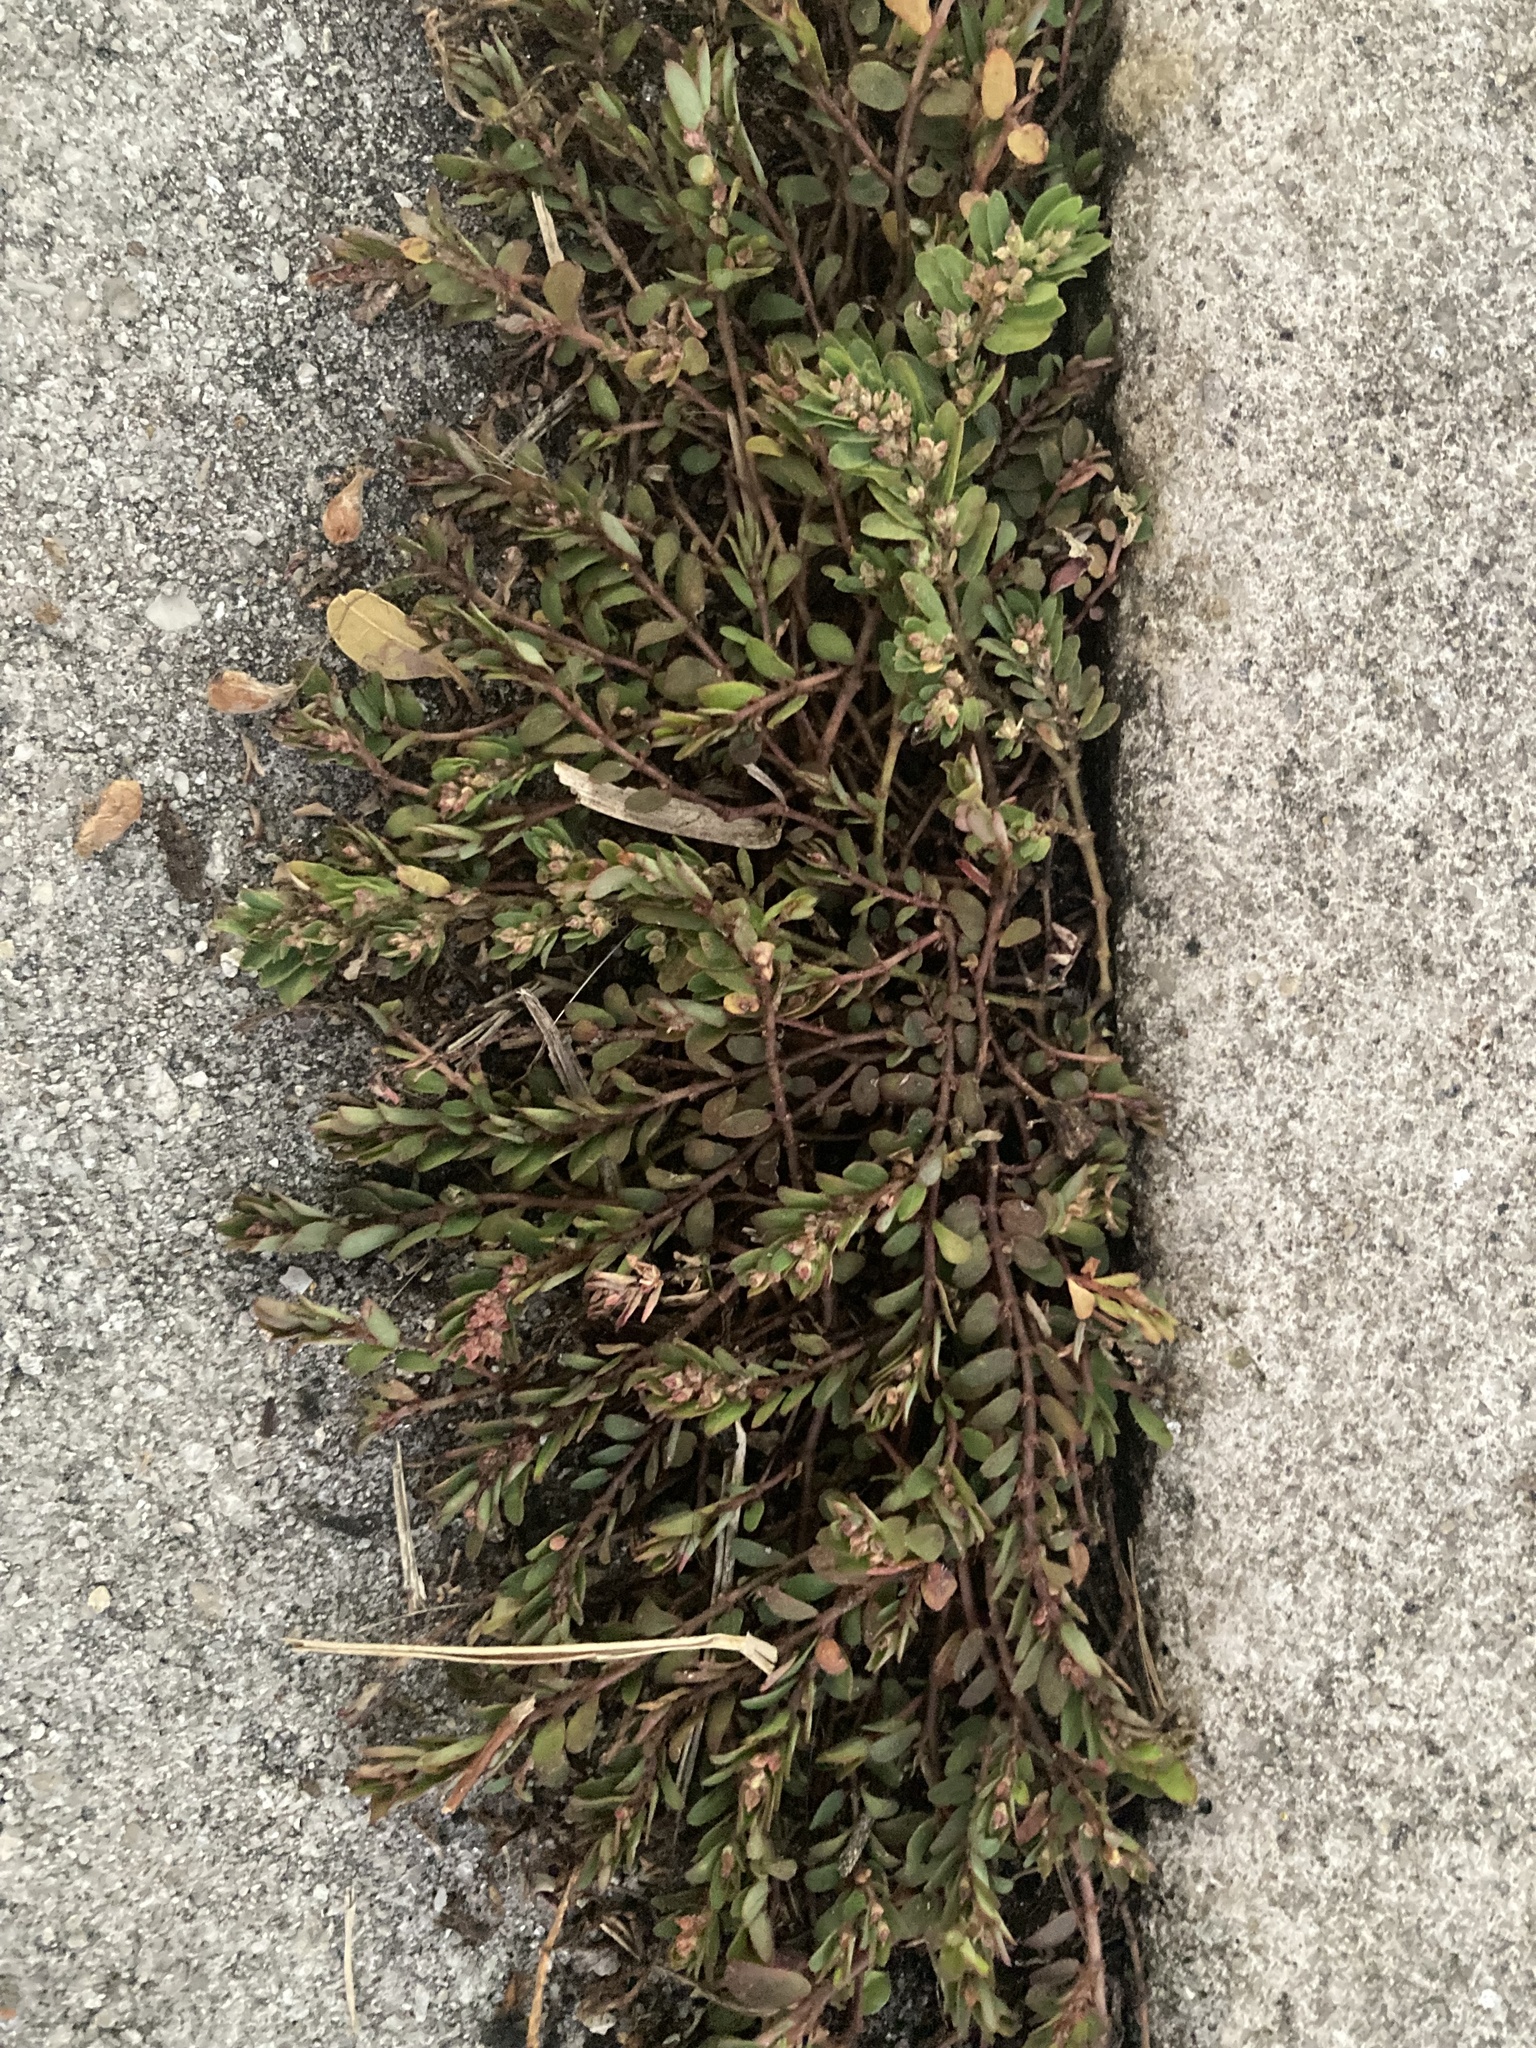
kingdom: Plantae
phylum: Tracheophyta
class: Magnoliopsida
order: Malpighiales
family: Euphorbiaceae
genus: Euphorbia
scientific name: Euphorbia thymifolia
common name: Gulf sandmat
